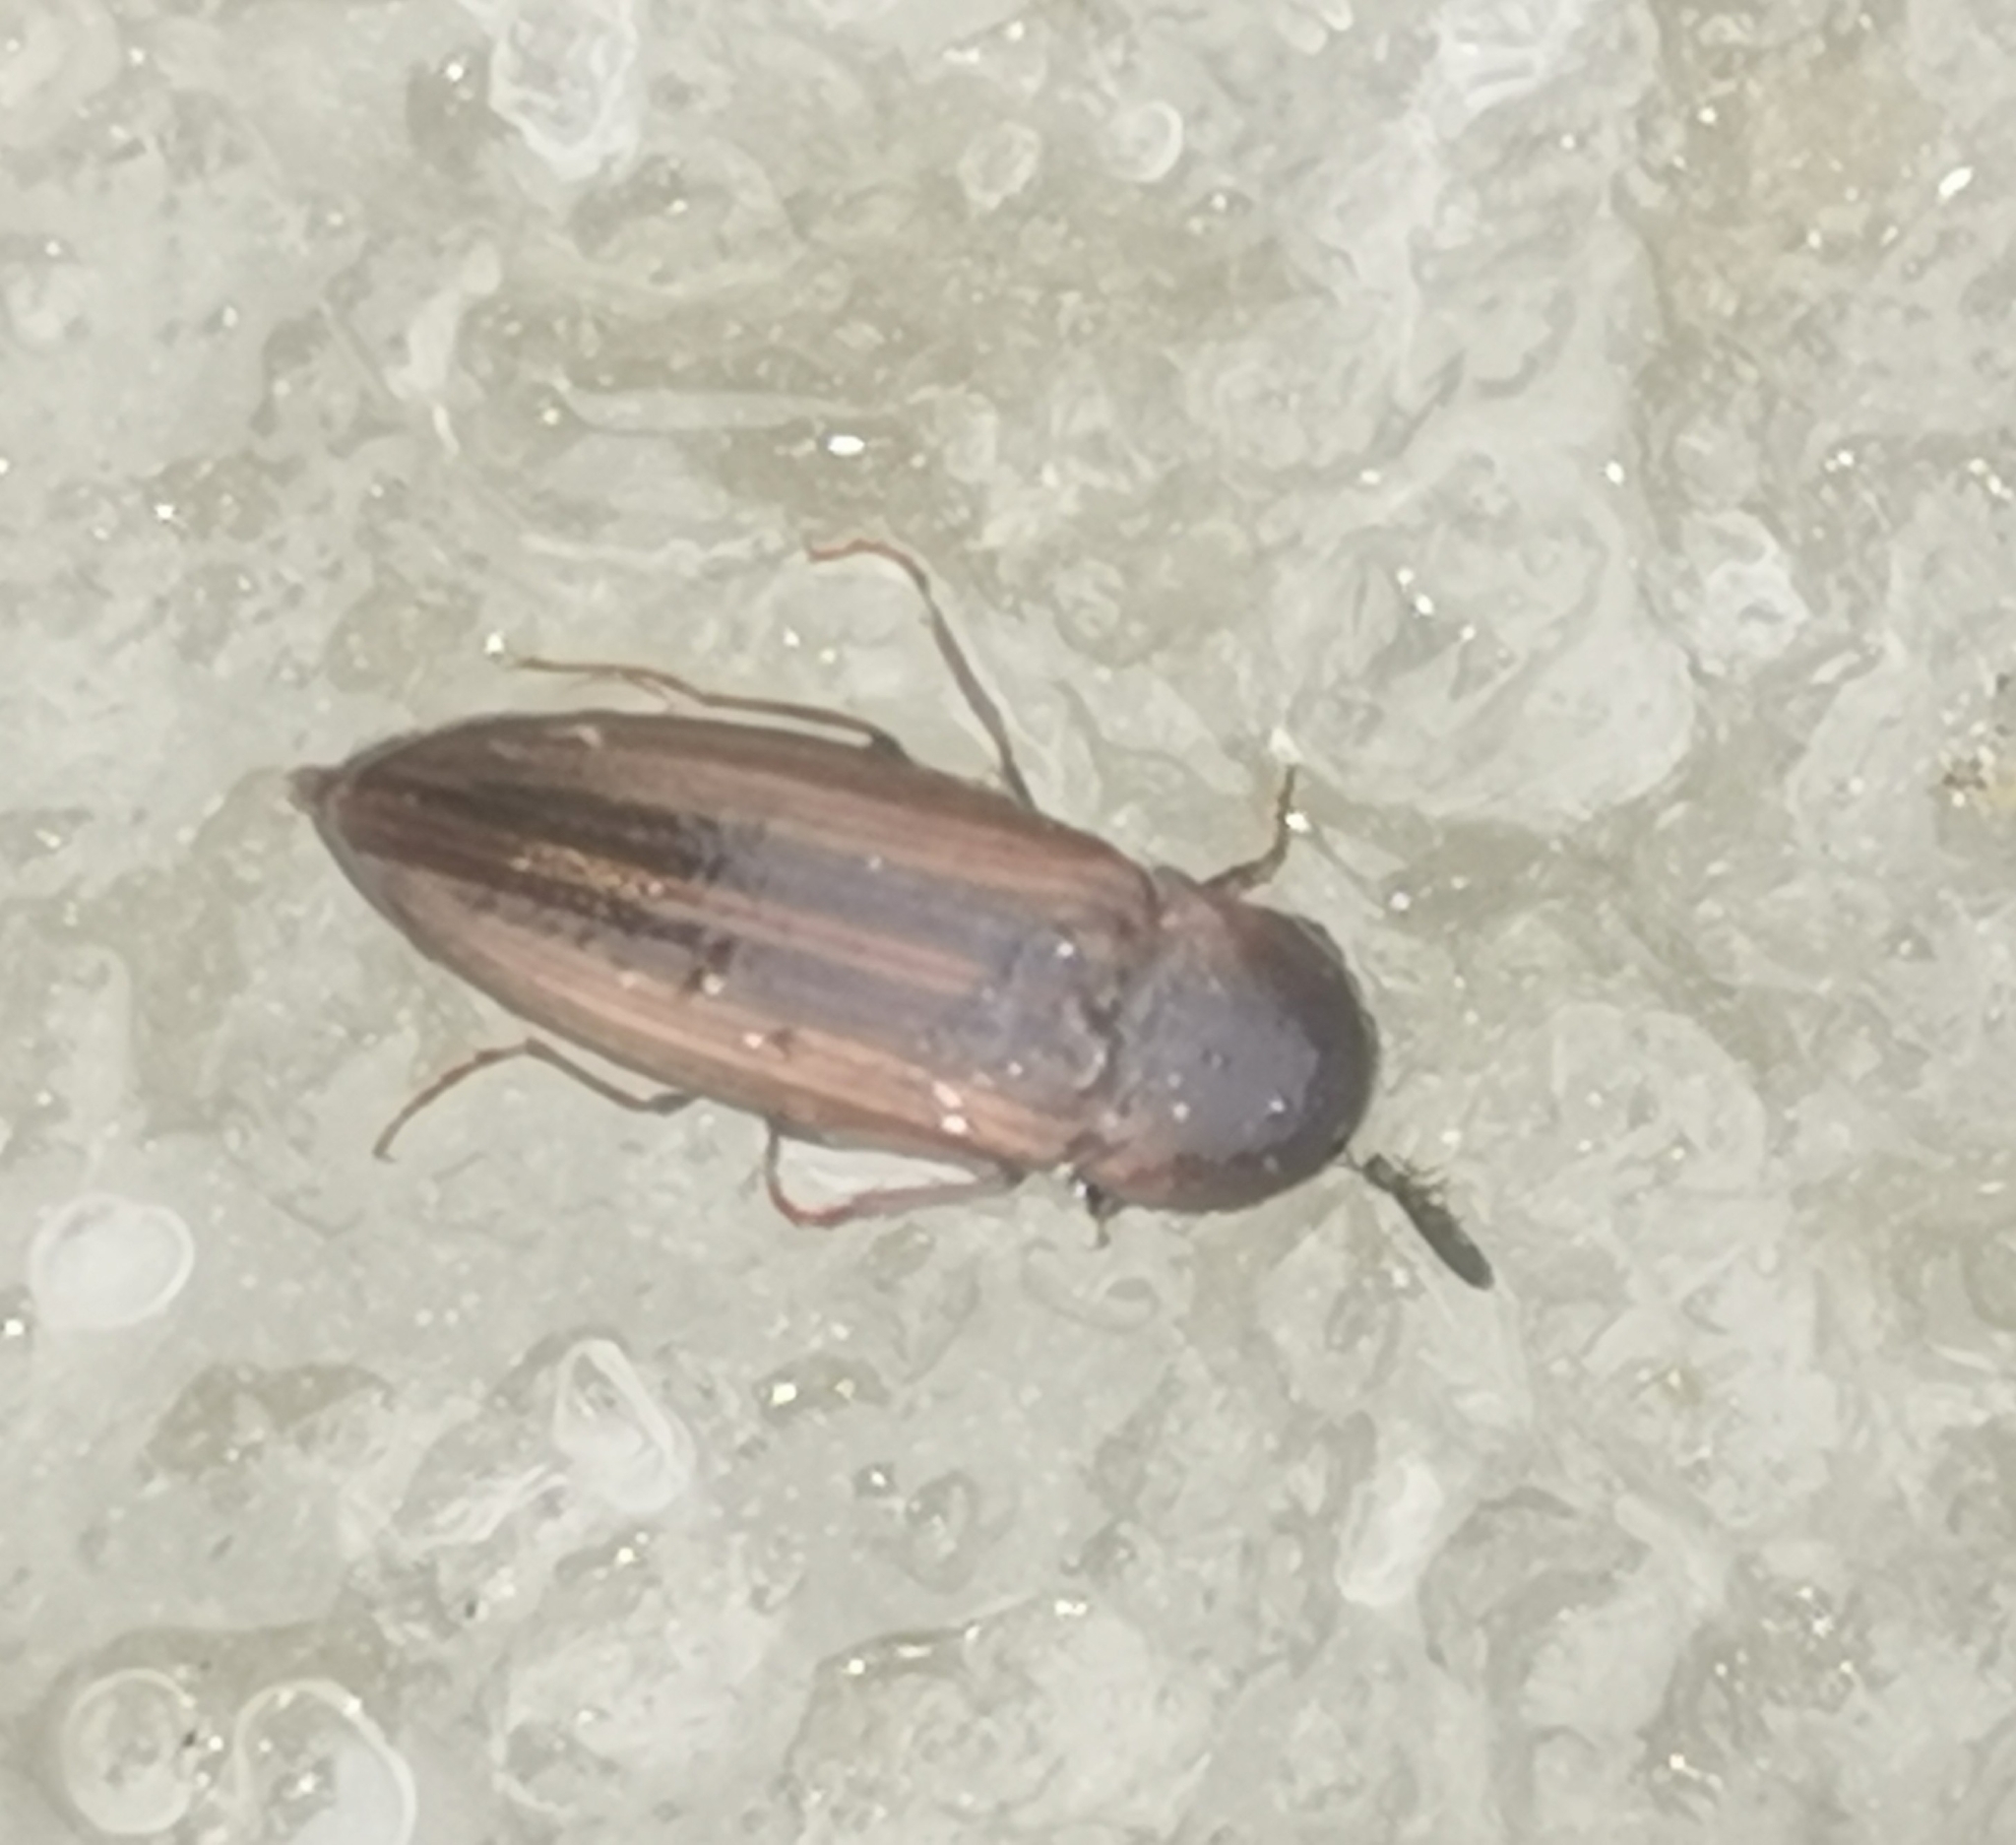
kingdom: Animalia
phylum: Arthropoda
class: Insecta
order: Coleoptera
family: Elateridae
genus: Agriotes
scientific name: Agriotes lineatus
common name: Lined click beetle
